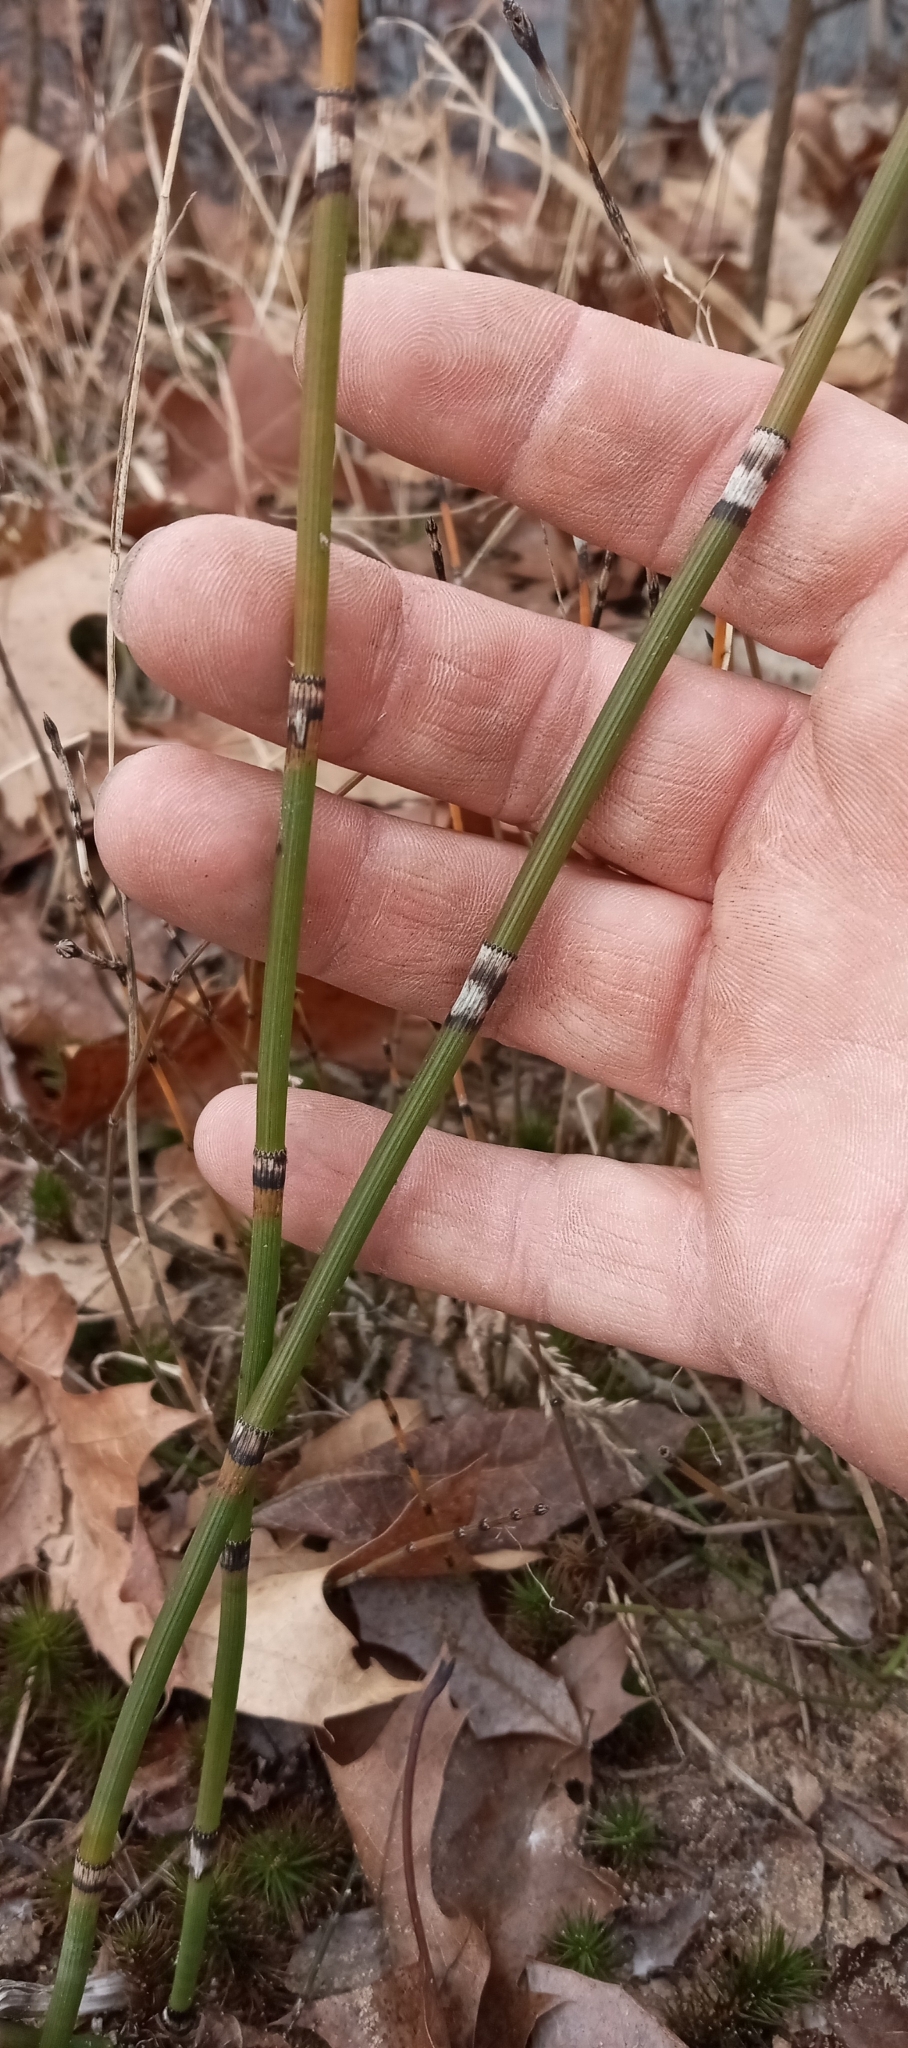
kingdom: Plantae
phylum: Tracheophyta
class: Polypodiopsida
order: Equisetales
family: Equisetaceae
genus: Equisetum
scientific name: Equisetum ferrissii
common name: Ferriss' horsetail
